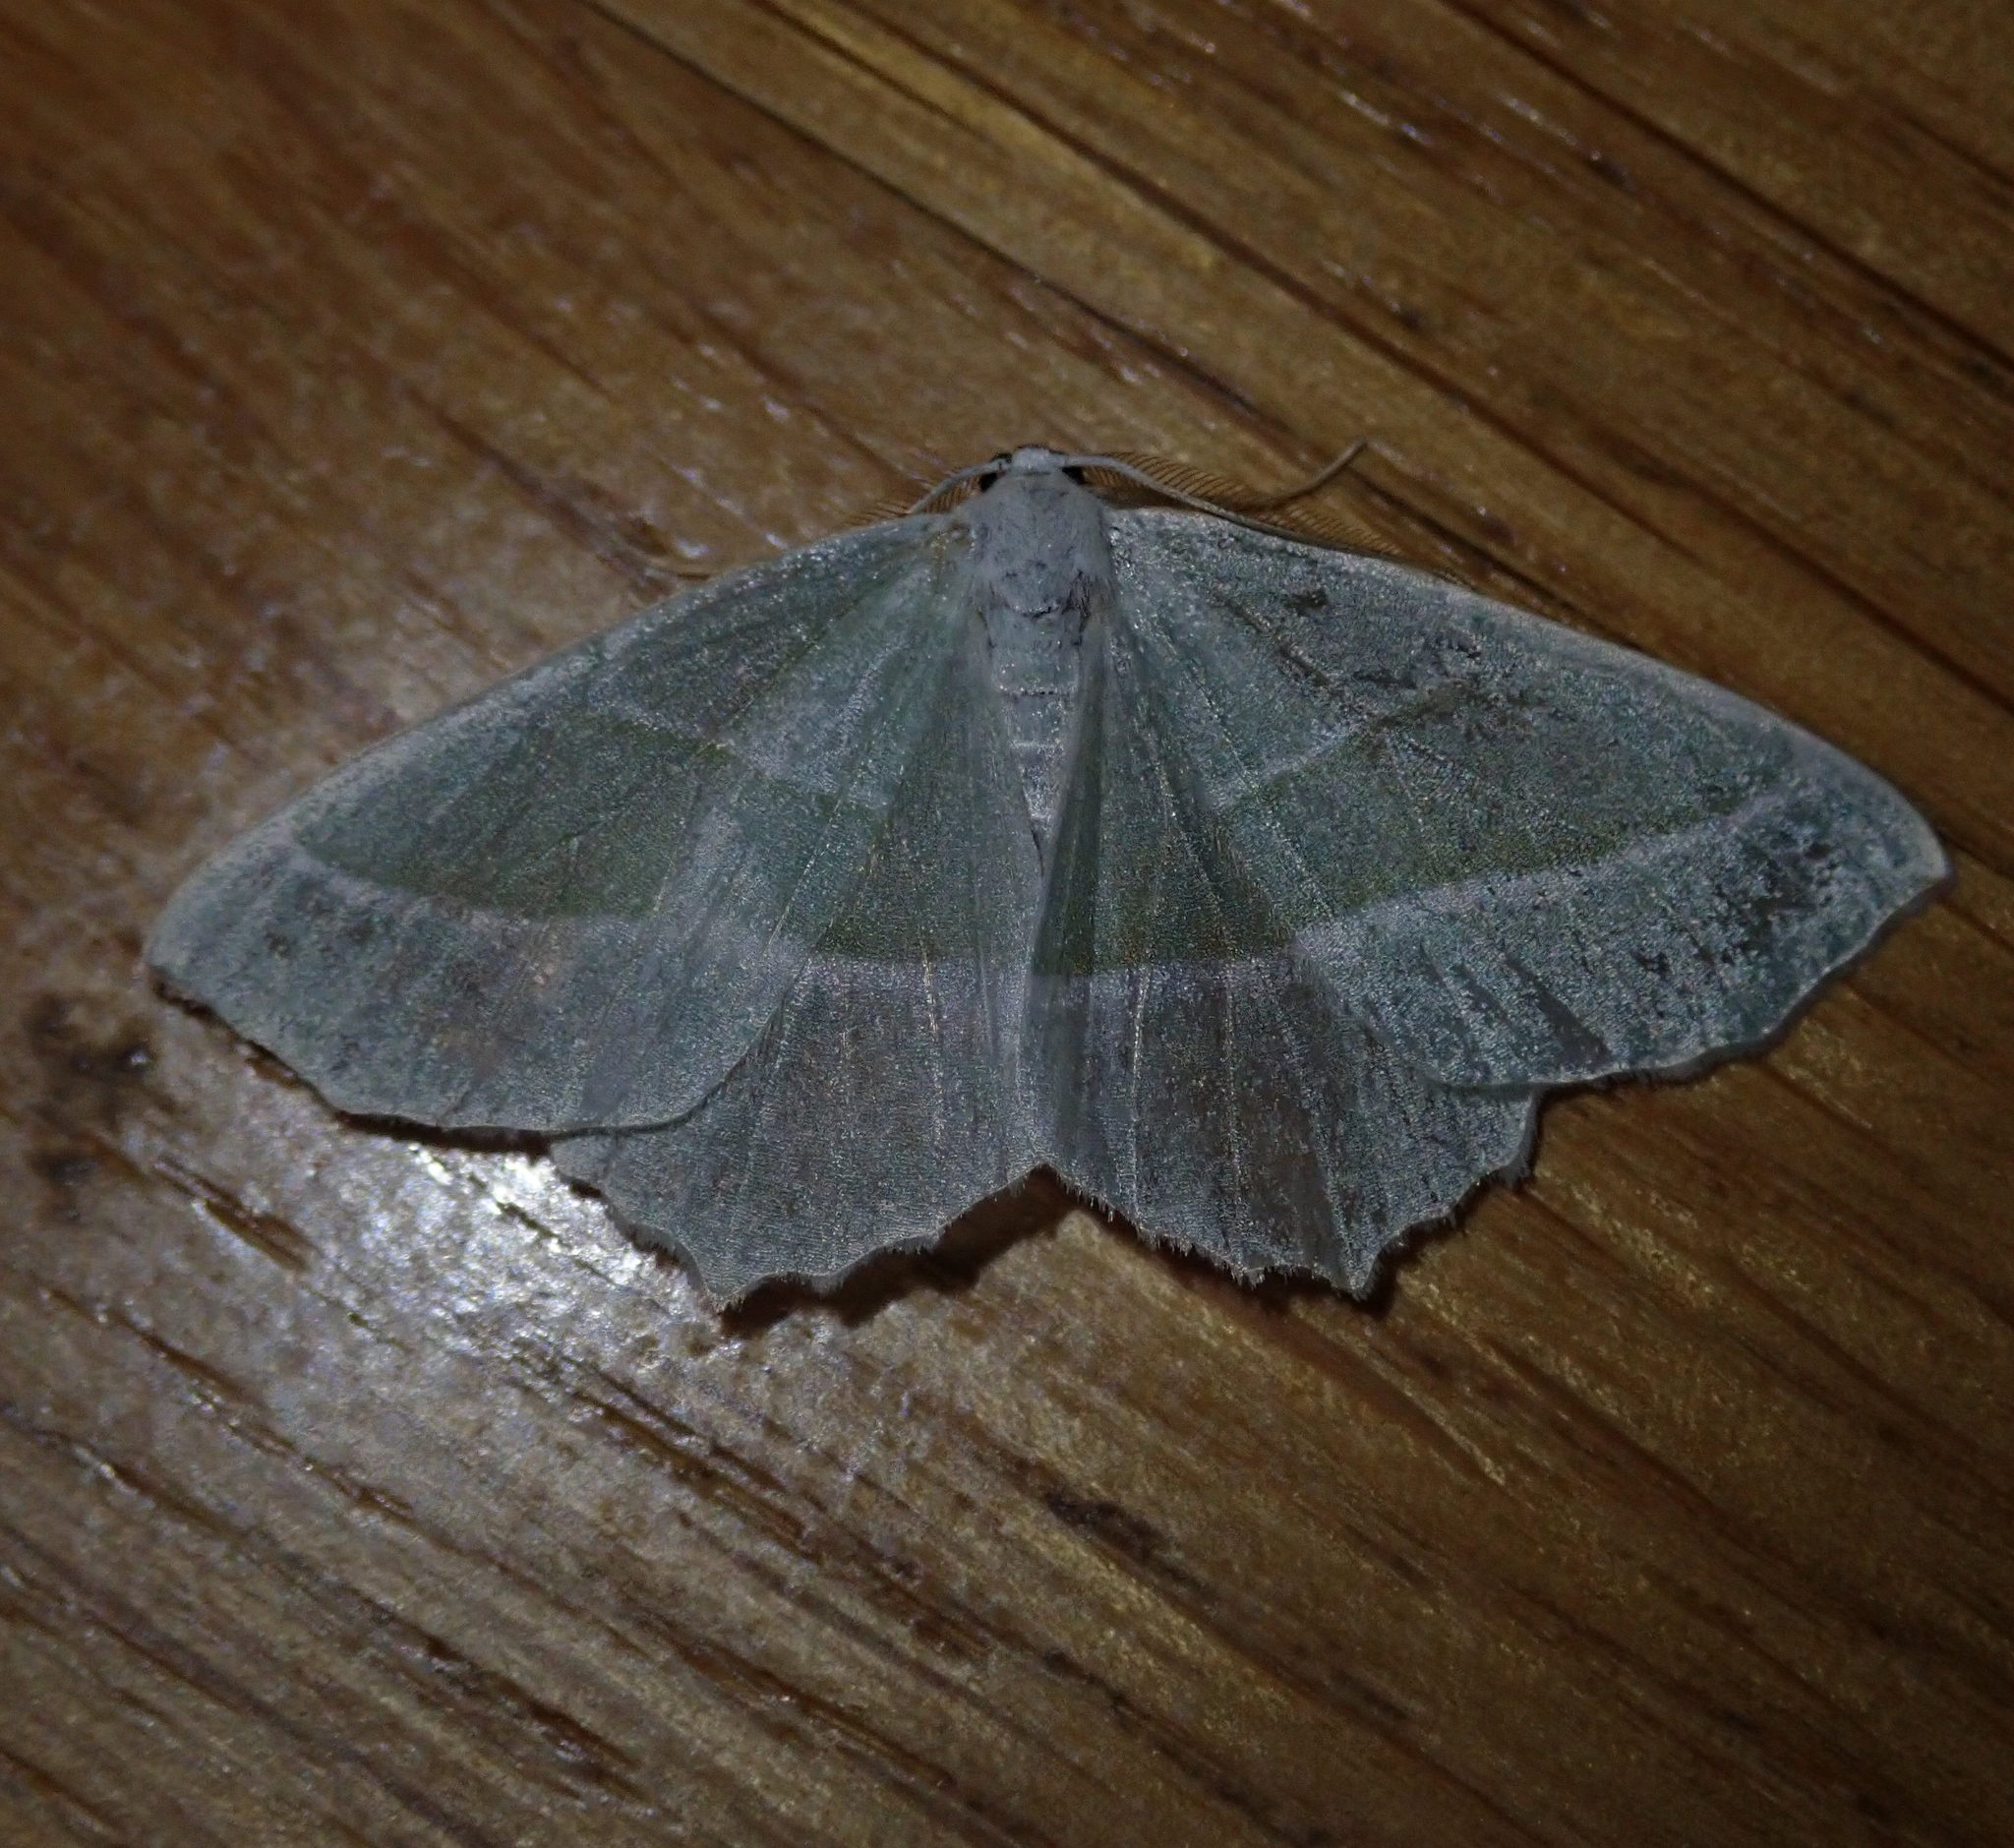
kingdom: Animalia
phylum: Arthropoda
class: Insecta
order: Lepidoptera
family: Geometridae
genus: Campaea
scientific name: Campaea margaritaria
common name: Light emerald
